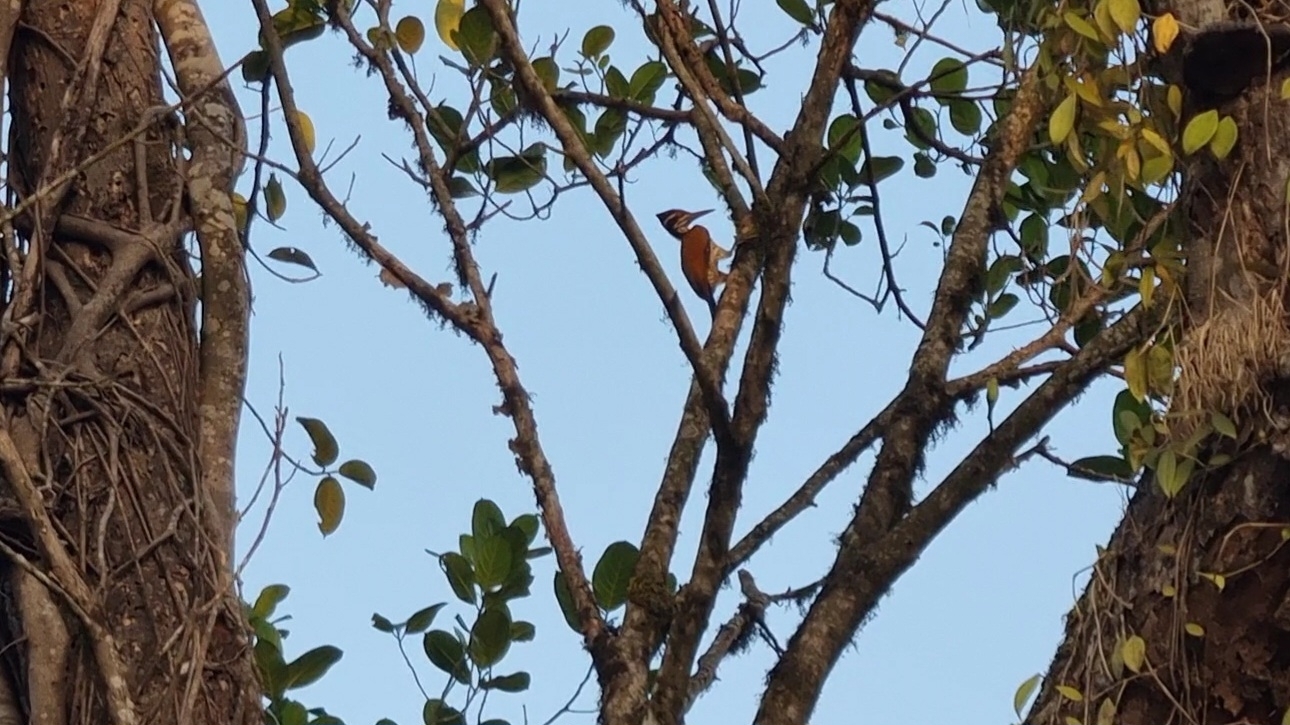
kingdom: Animalia
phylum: Chordata
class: Aves
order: Piciformes
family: Picidae
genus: Chrysocolaptes
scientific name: Chrysocolaptes socialis
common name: Malabar flameback
